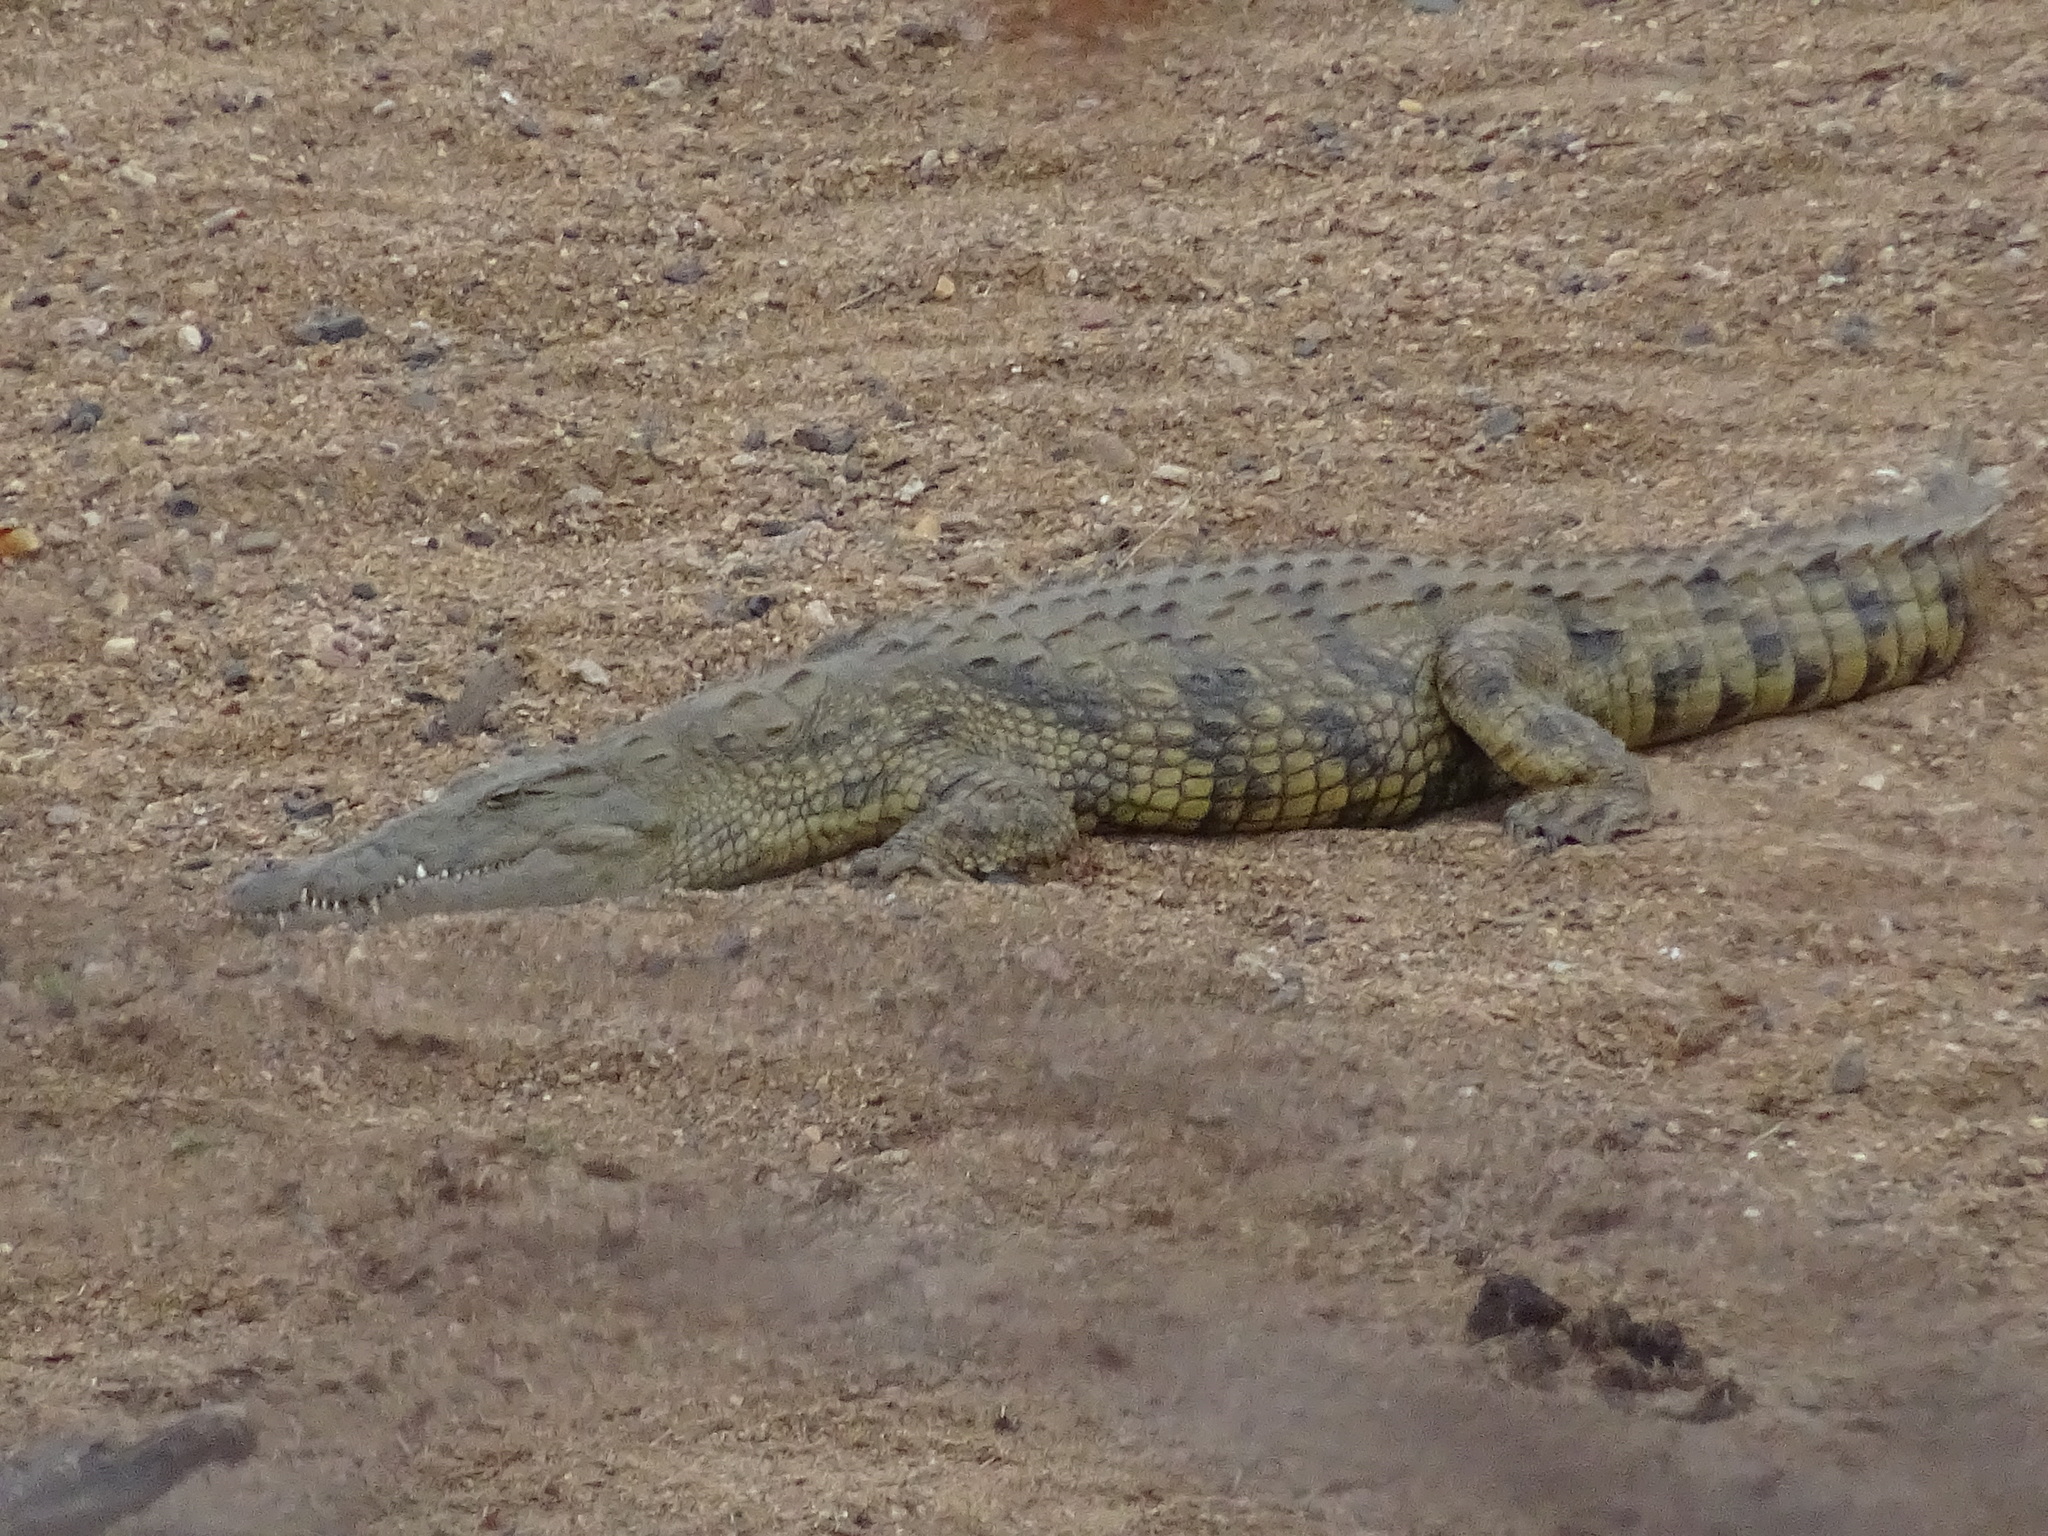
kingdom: Animalia
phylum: Chordata
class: Crocodylia
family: Crocodylidae
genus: Crocodylus
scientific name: Crocodylus niloticus
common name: Nile crocodile
